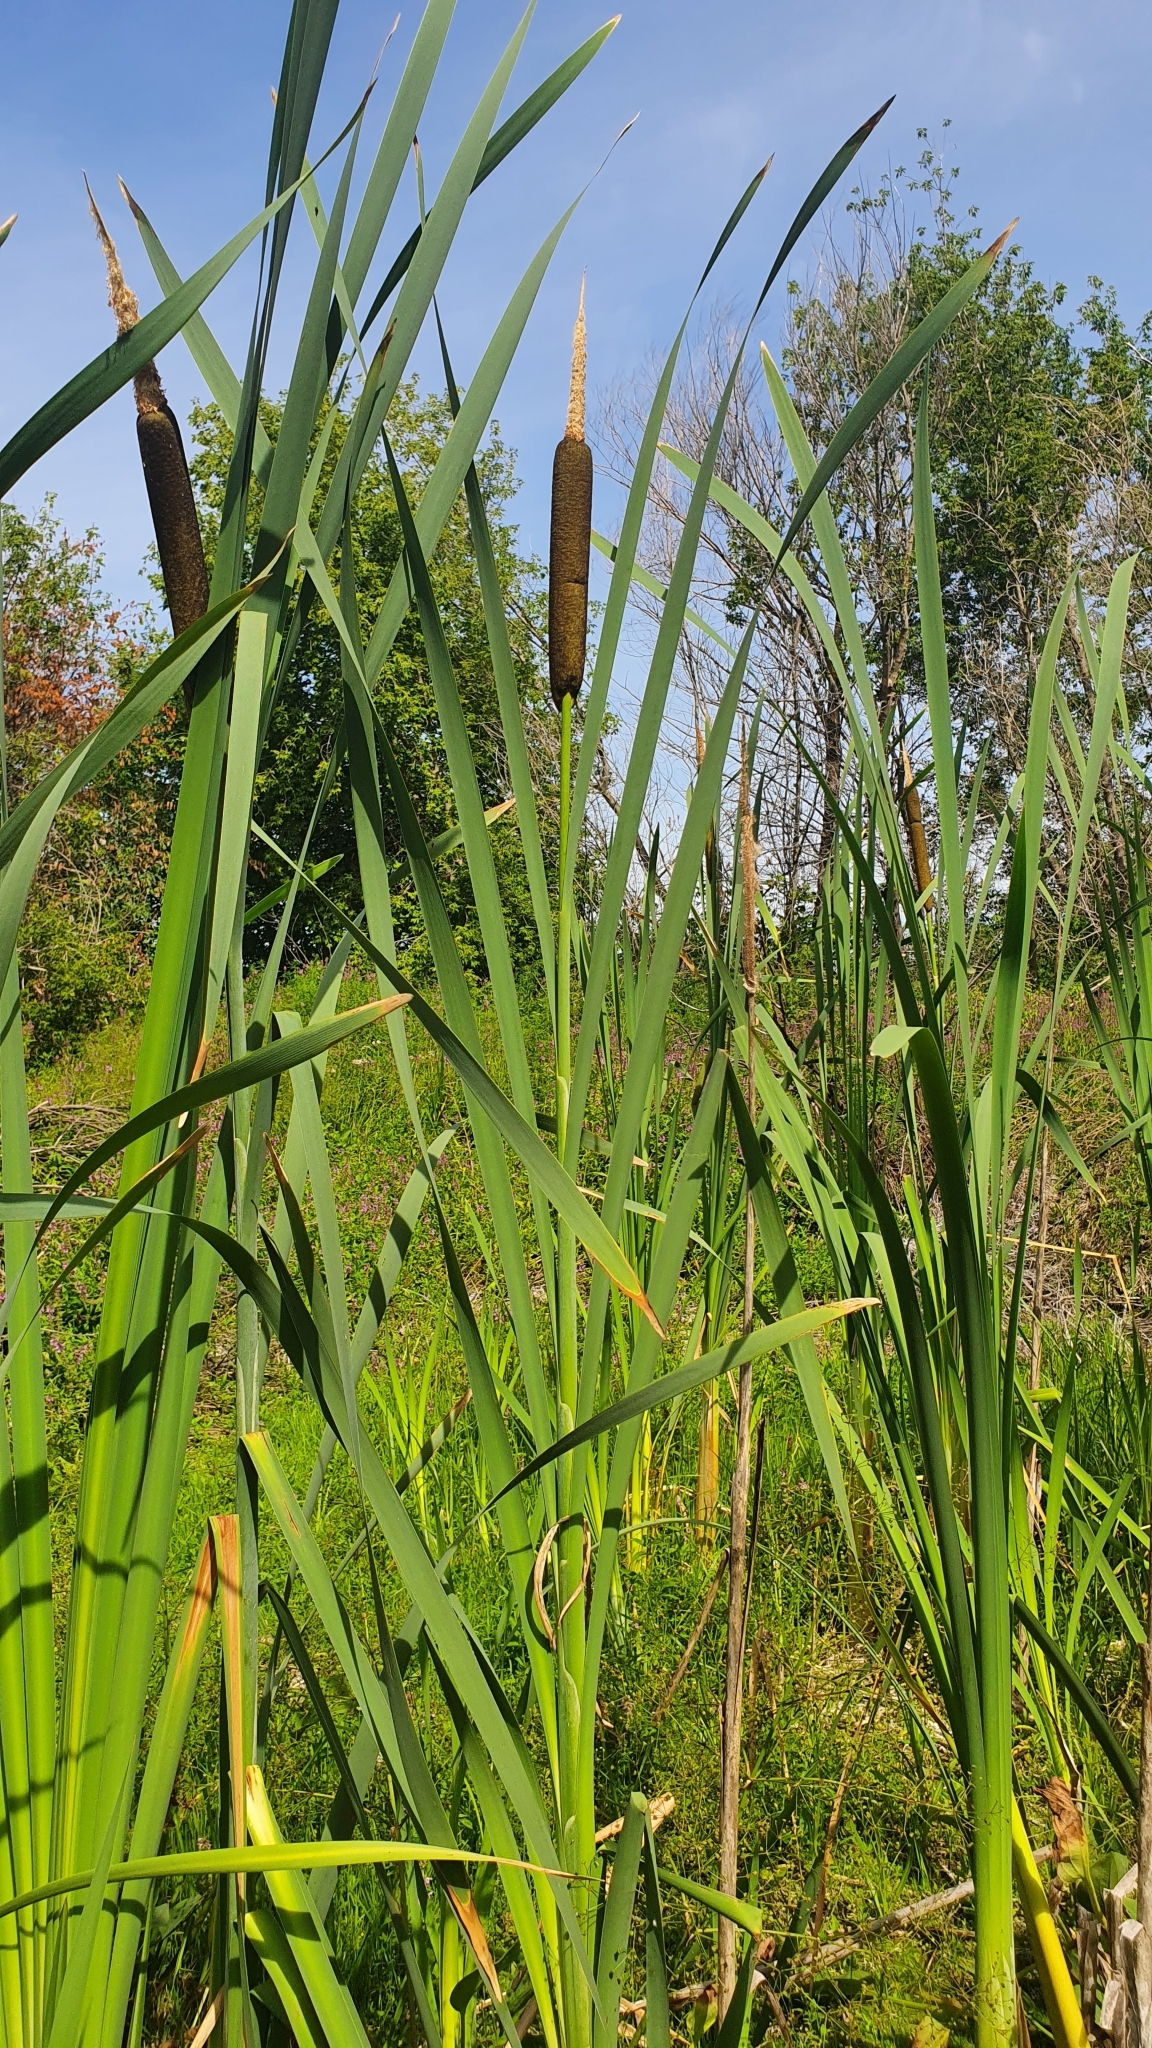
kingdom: Plantae
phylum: Tracheophyta
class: Liliopsida
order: Poales
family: Typhaceae
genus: Typha
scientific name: Typha latifolia
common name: Broadleaf cattail
